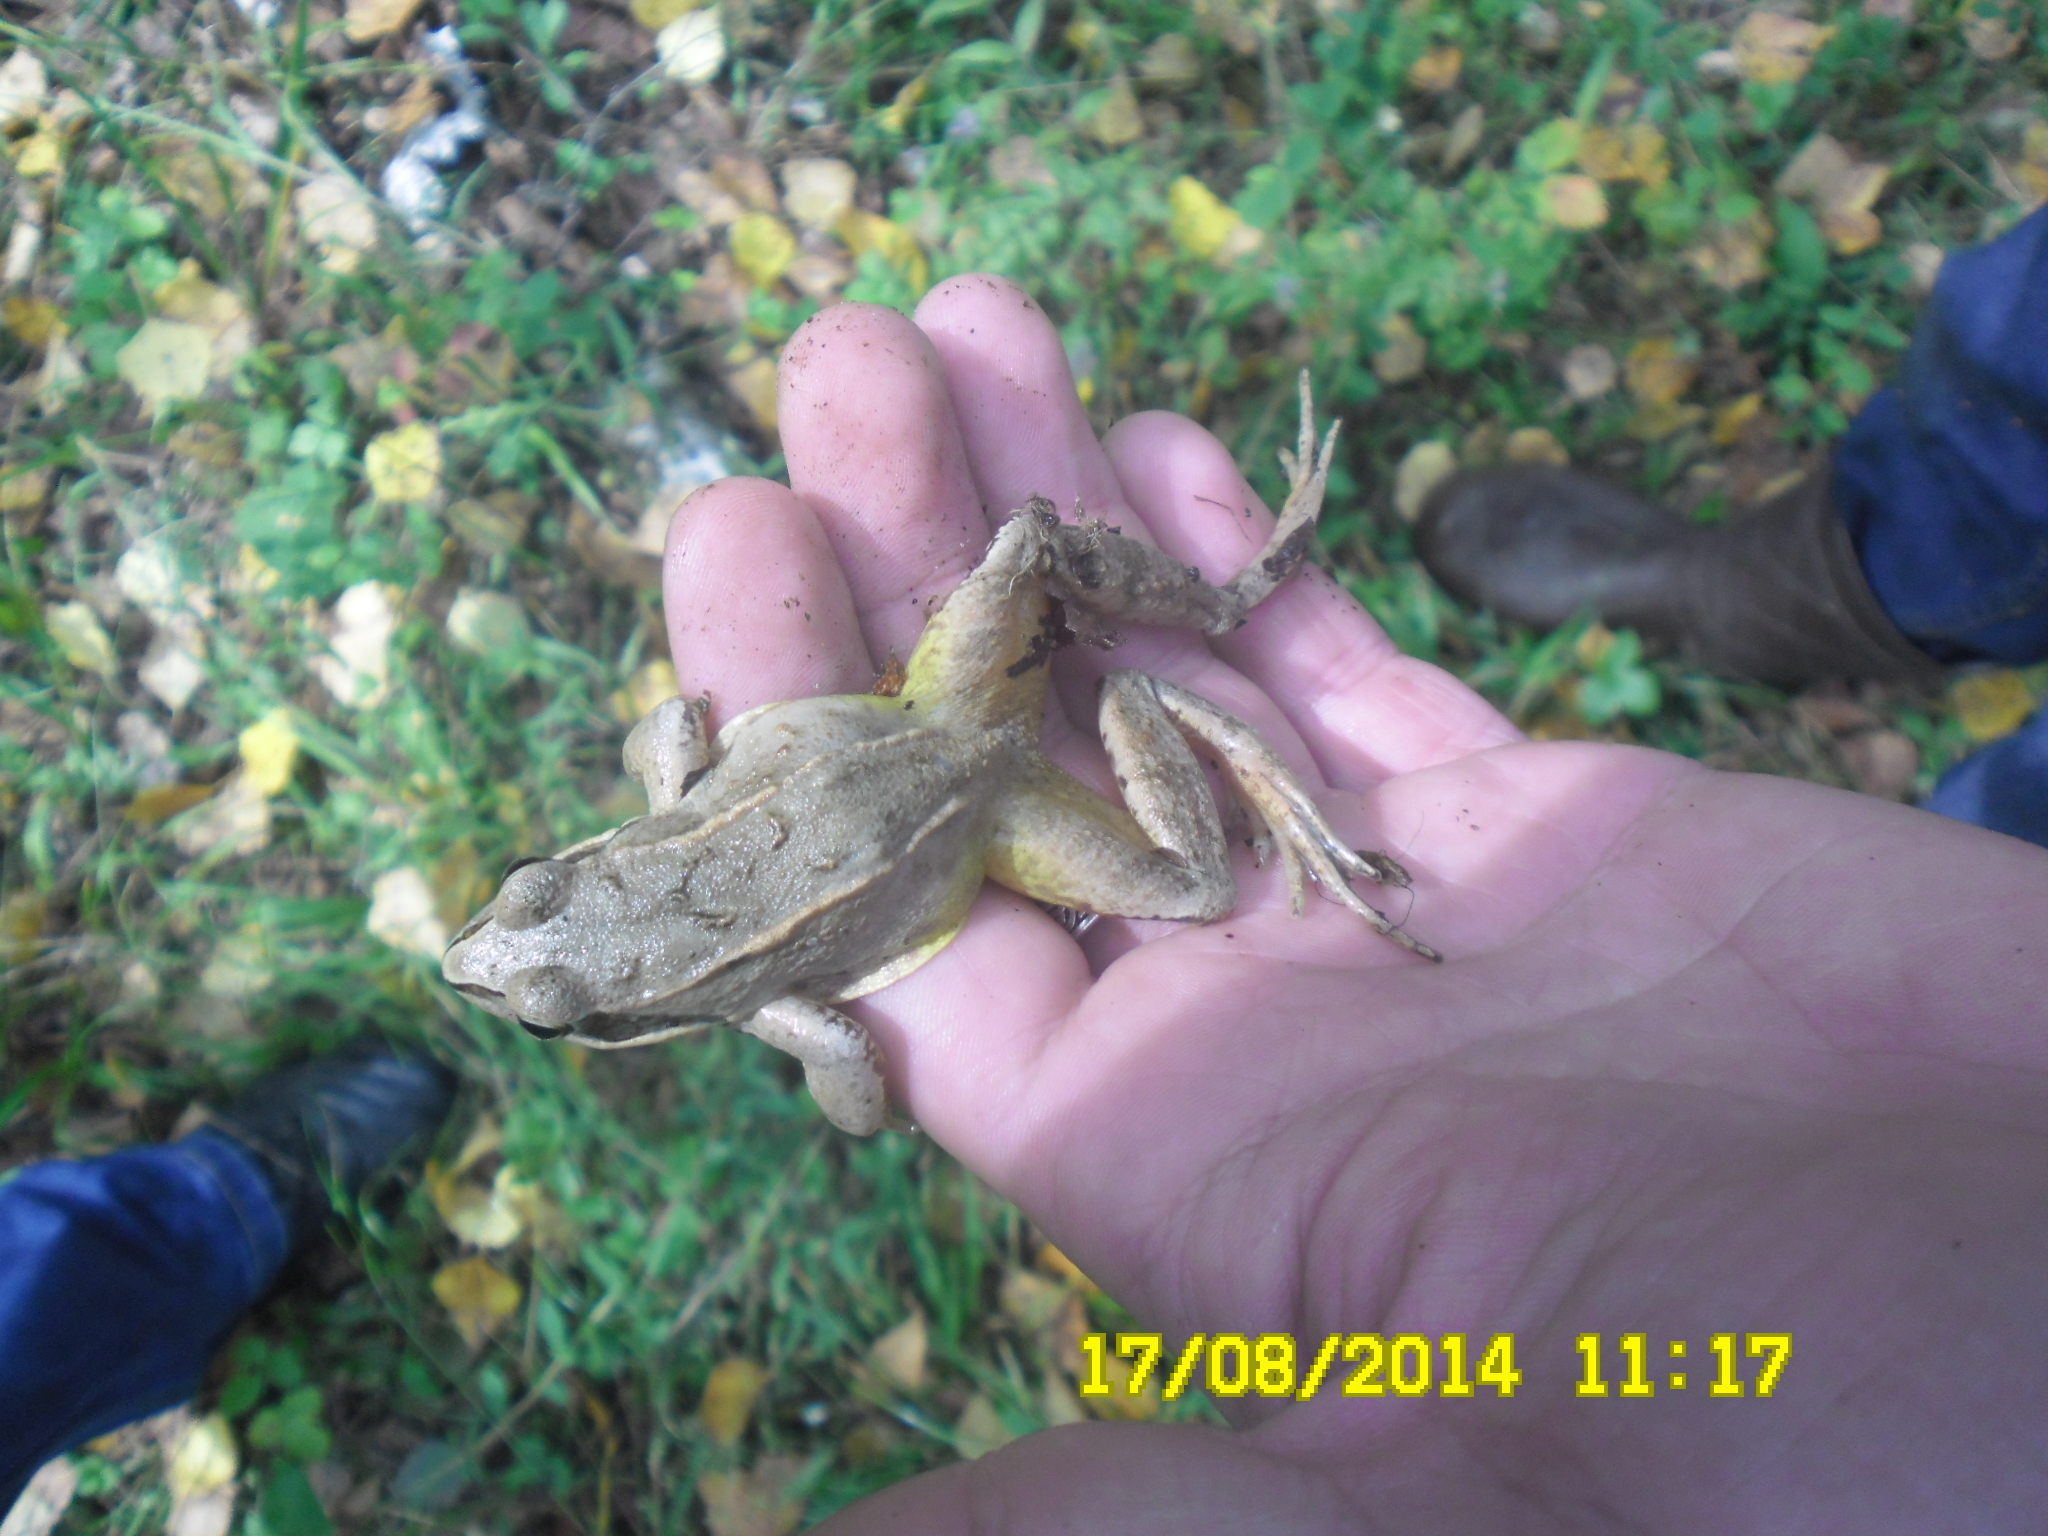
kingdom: Animalia
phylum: Chordata
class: Amphibia
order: Anura
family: Ranidae
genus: Rana
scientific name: Rana arvalis
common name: Moor frog
